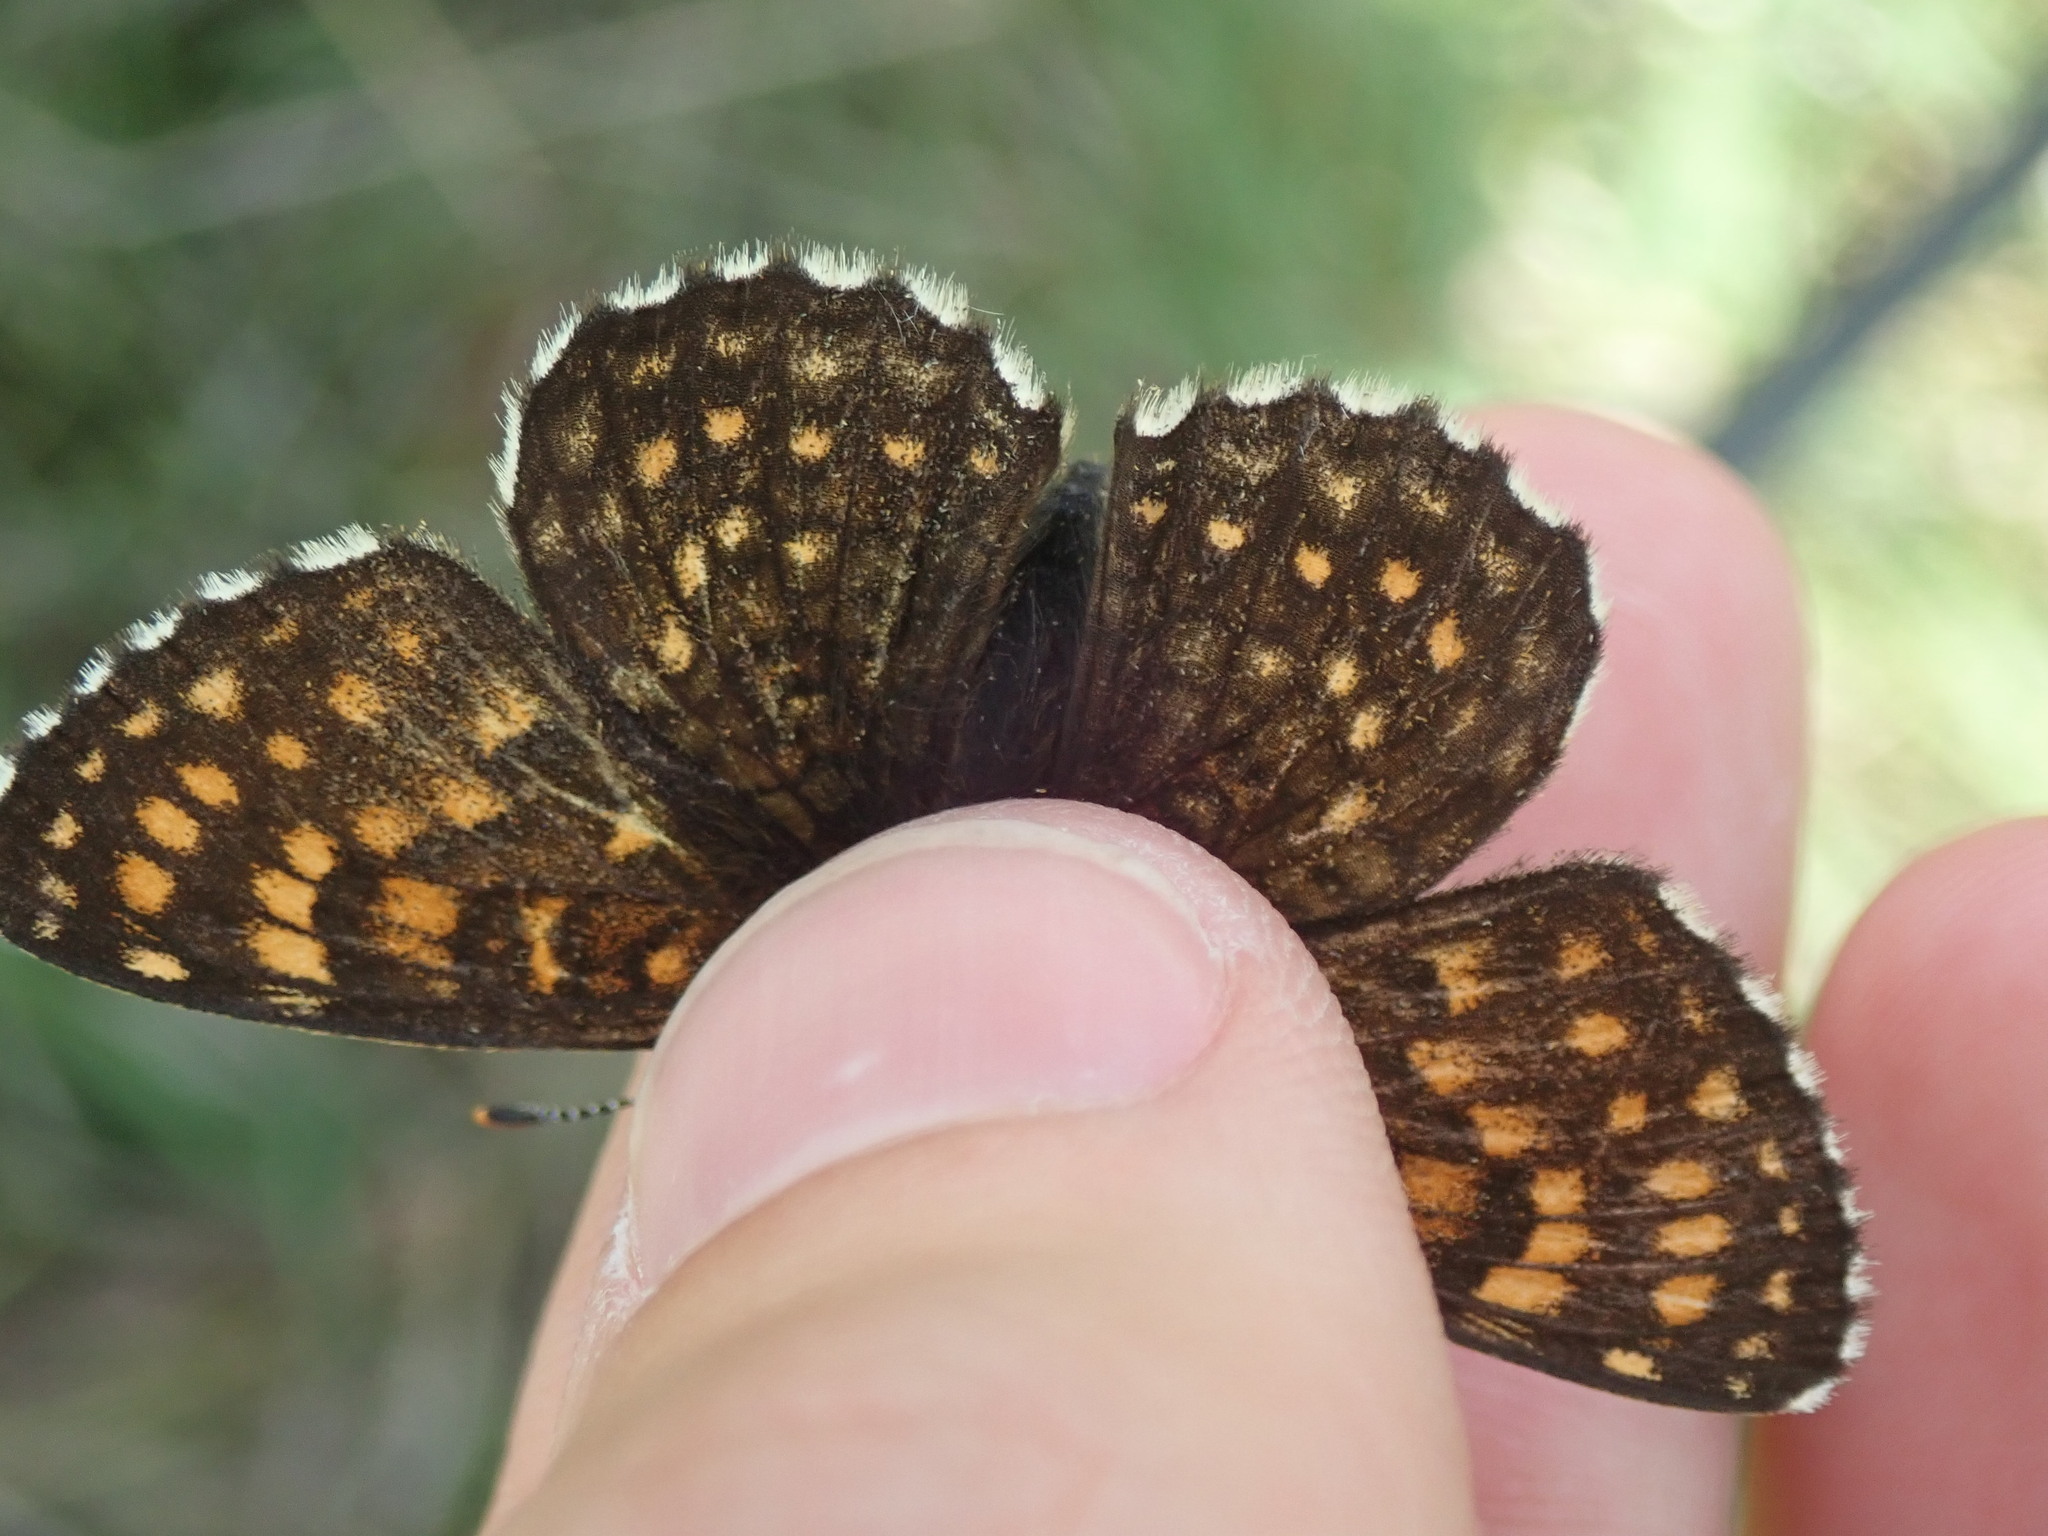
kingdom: Animalia
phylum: Arthropoda
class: Insecta
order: Lepidoptera
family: Nymphalidae
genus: Melitaea
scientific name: Melitaea diamina
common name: False heath fritillary
